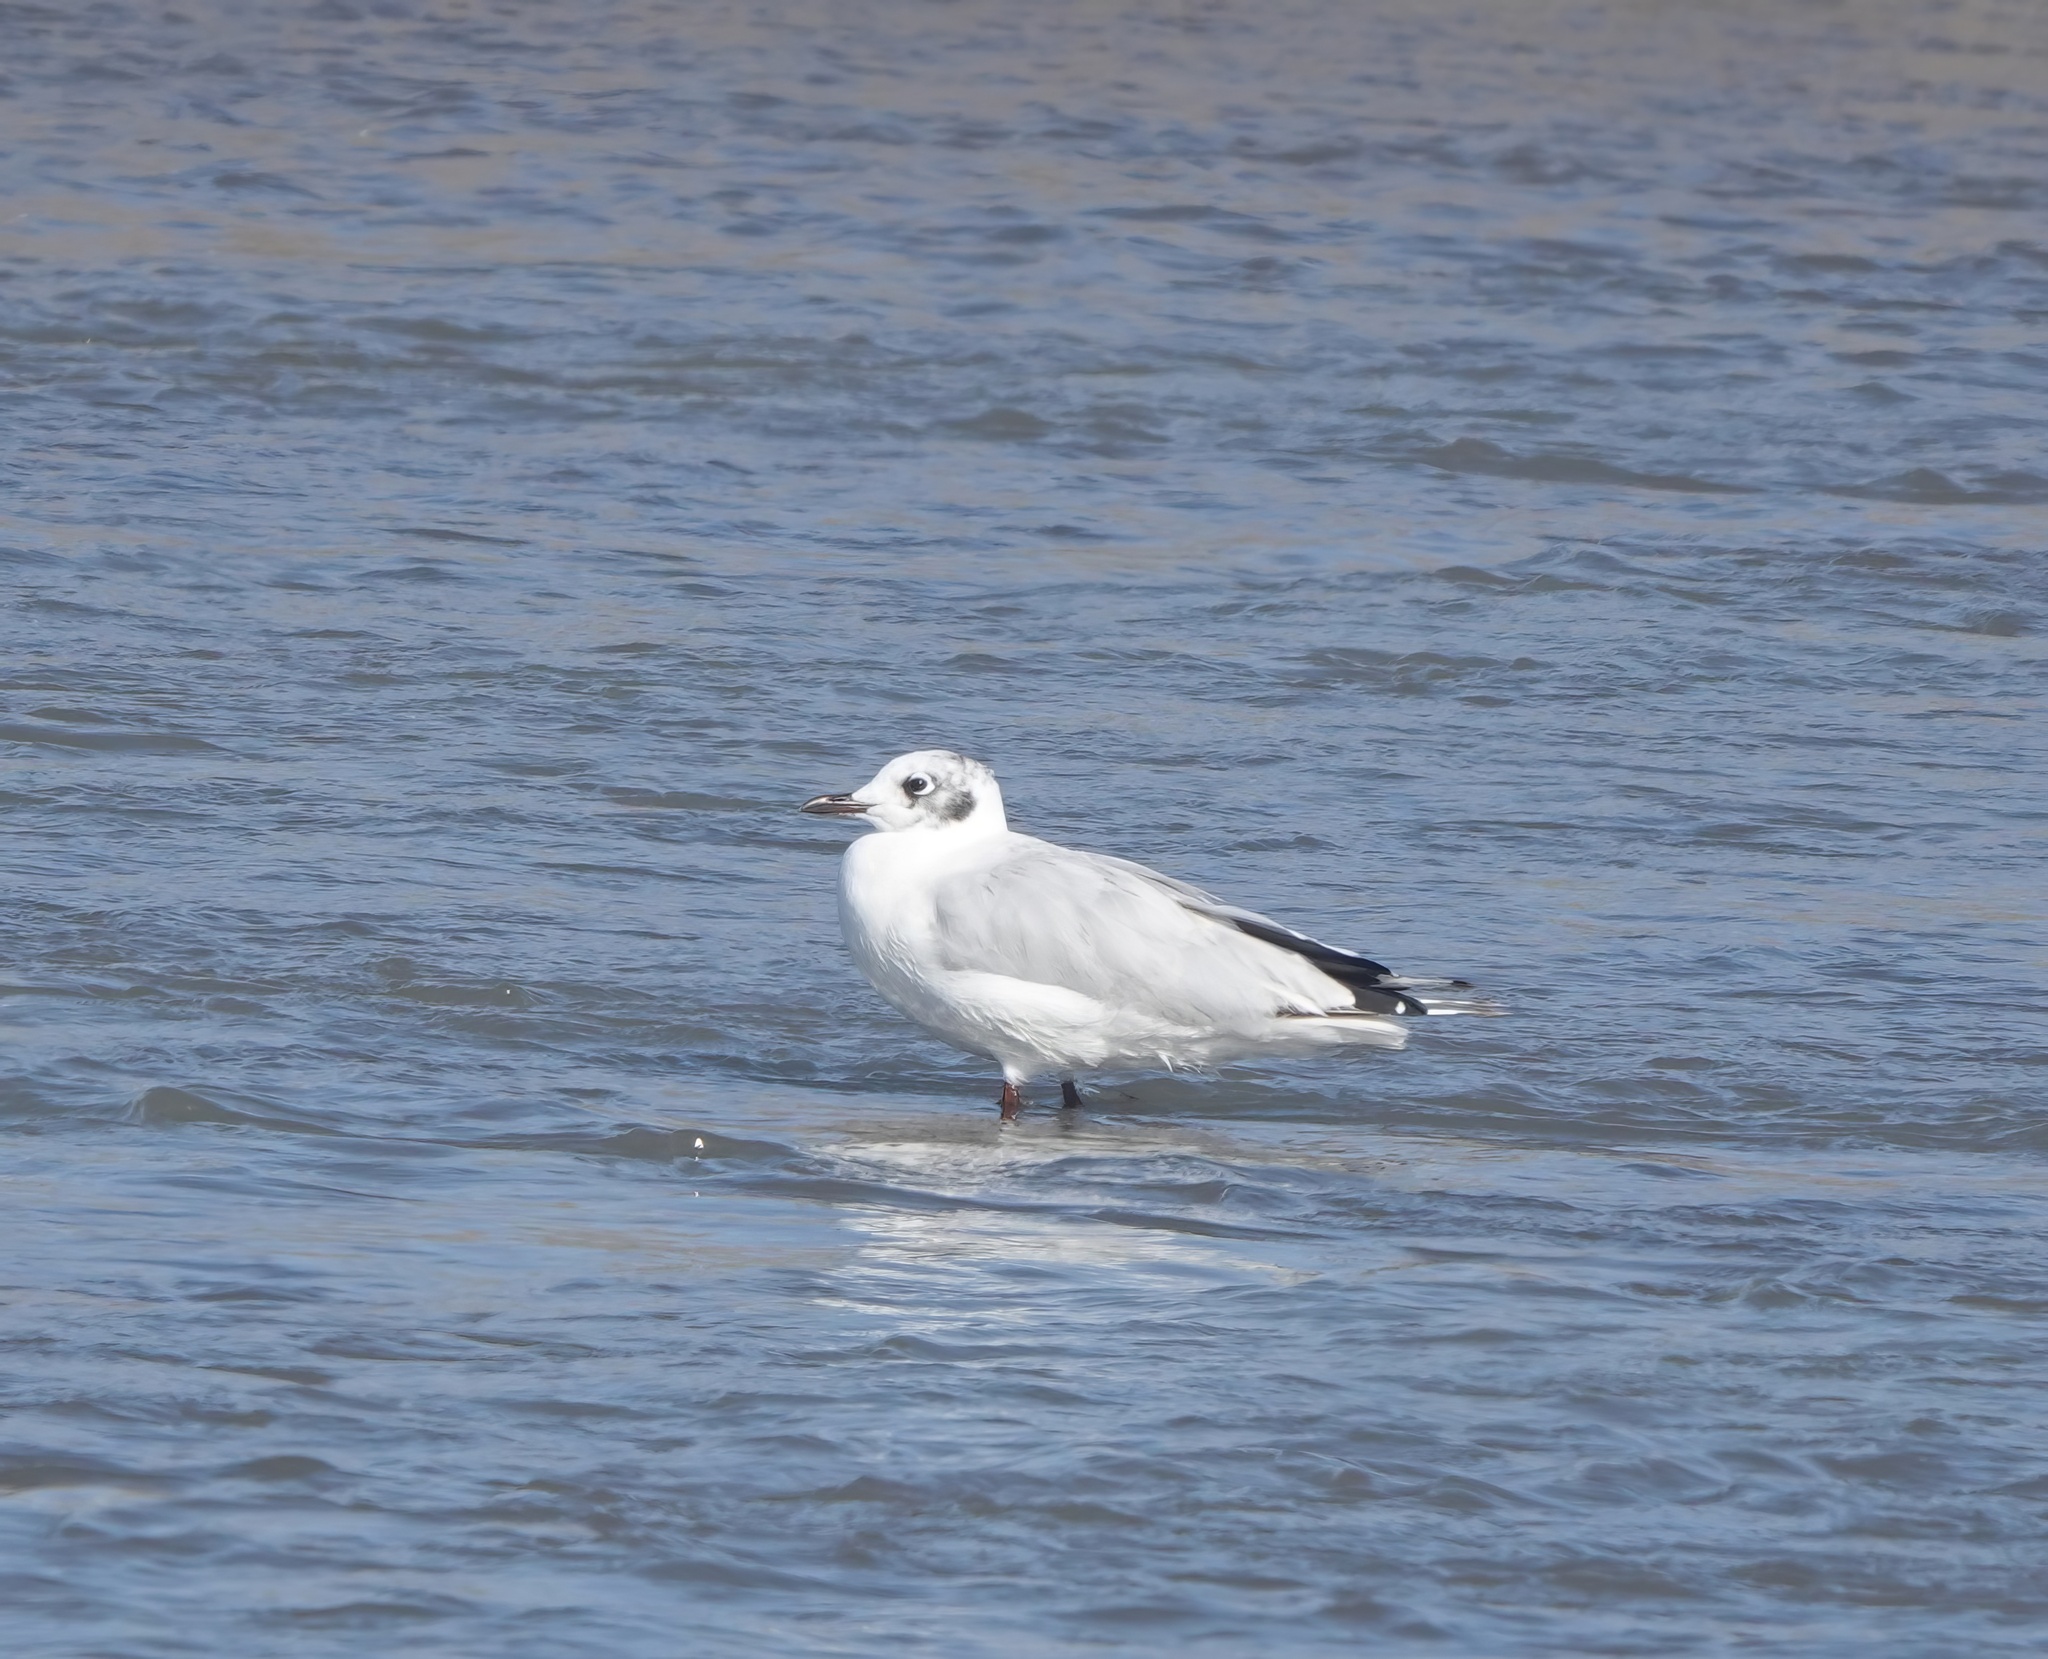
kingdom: Animalia
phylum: Chordata
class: Aves
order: Charadriiformes
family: Laridae
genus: Chroicocephalus
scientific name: Chroicocephalus serranus
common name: Andean gull
